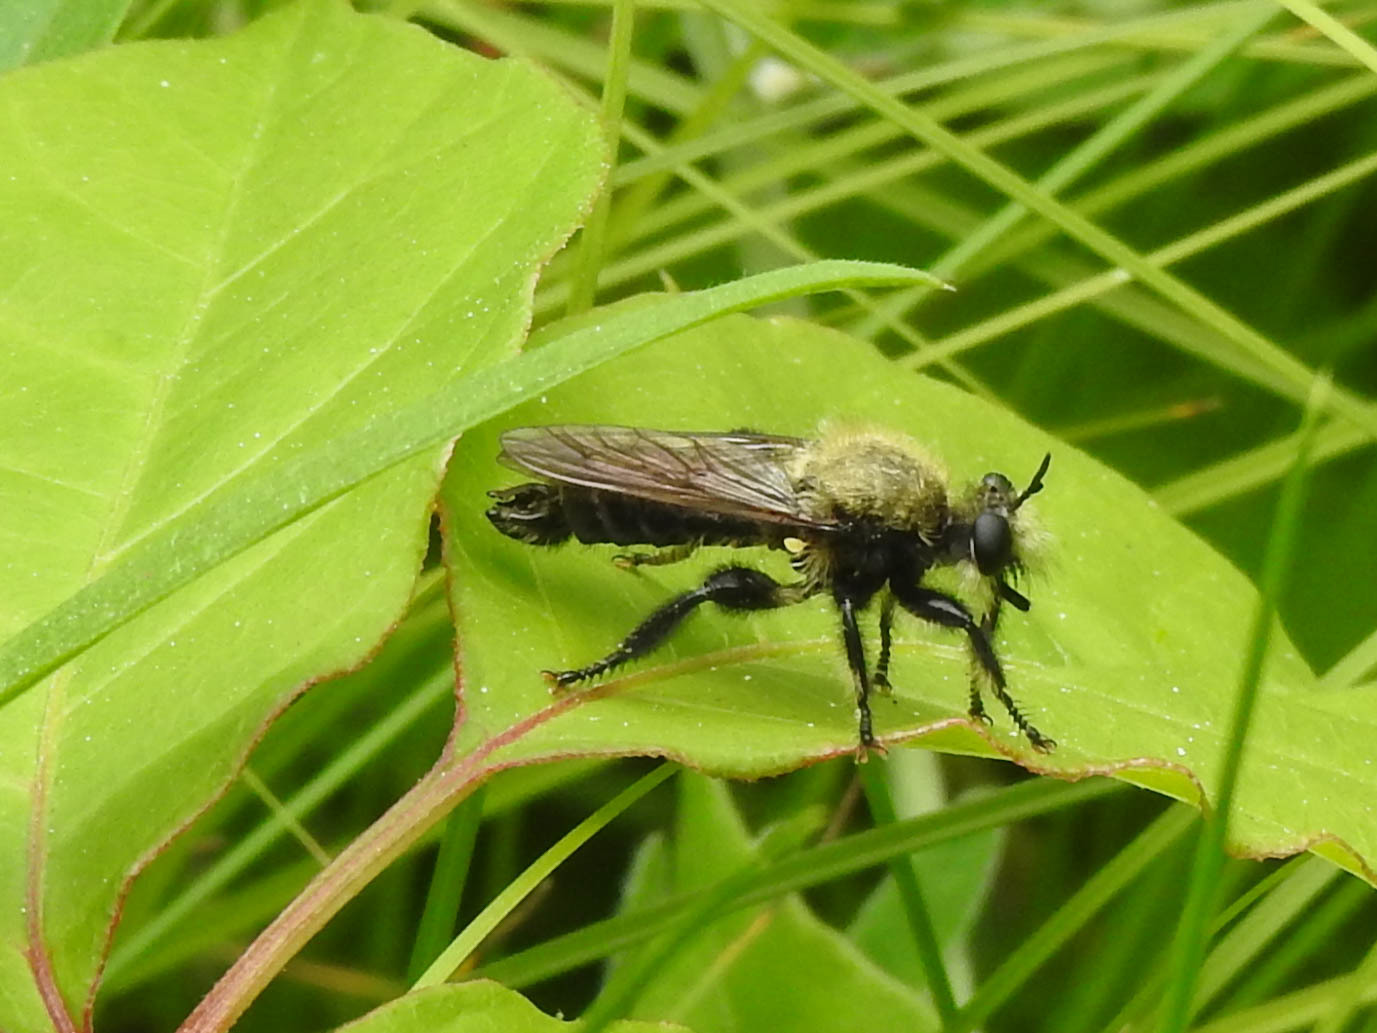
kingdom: Animalia
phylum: Arthropoda
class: Insecta
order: Diptera
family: Asilidae
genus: Laphria
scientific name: Laphria flavicollis
